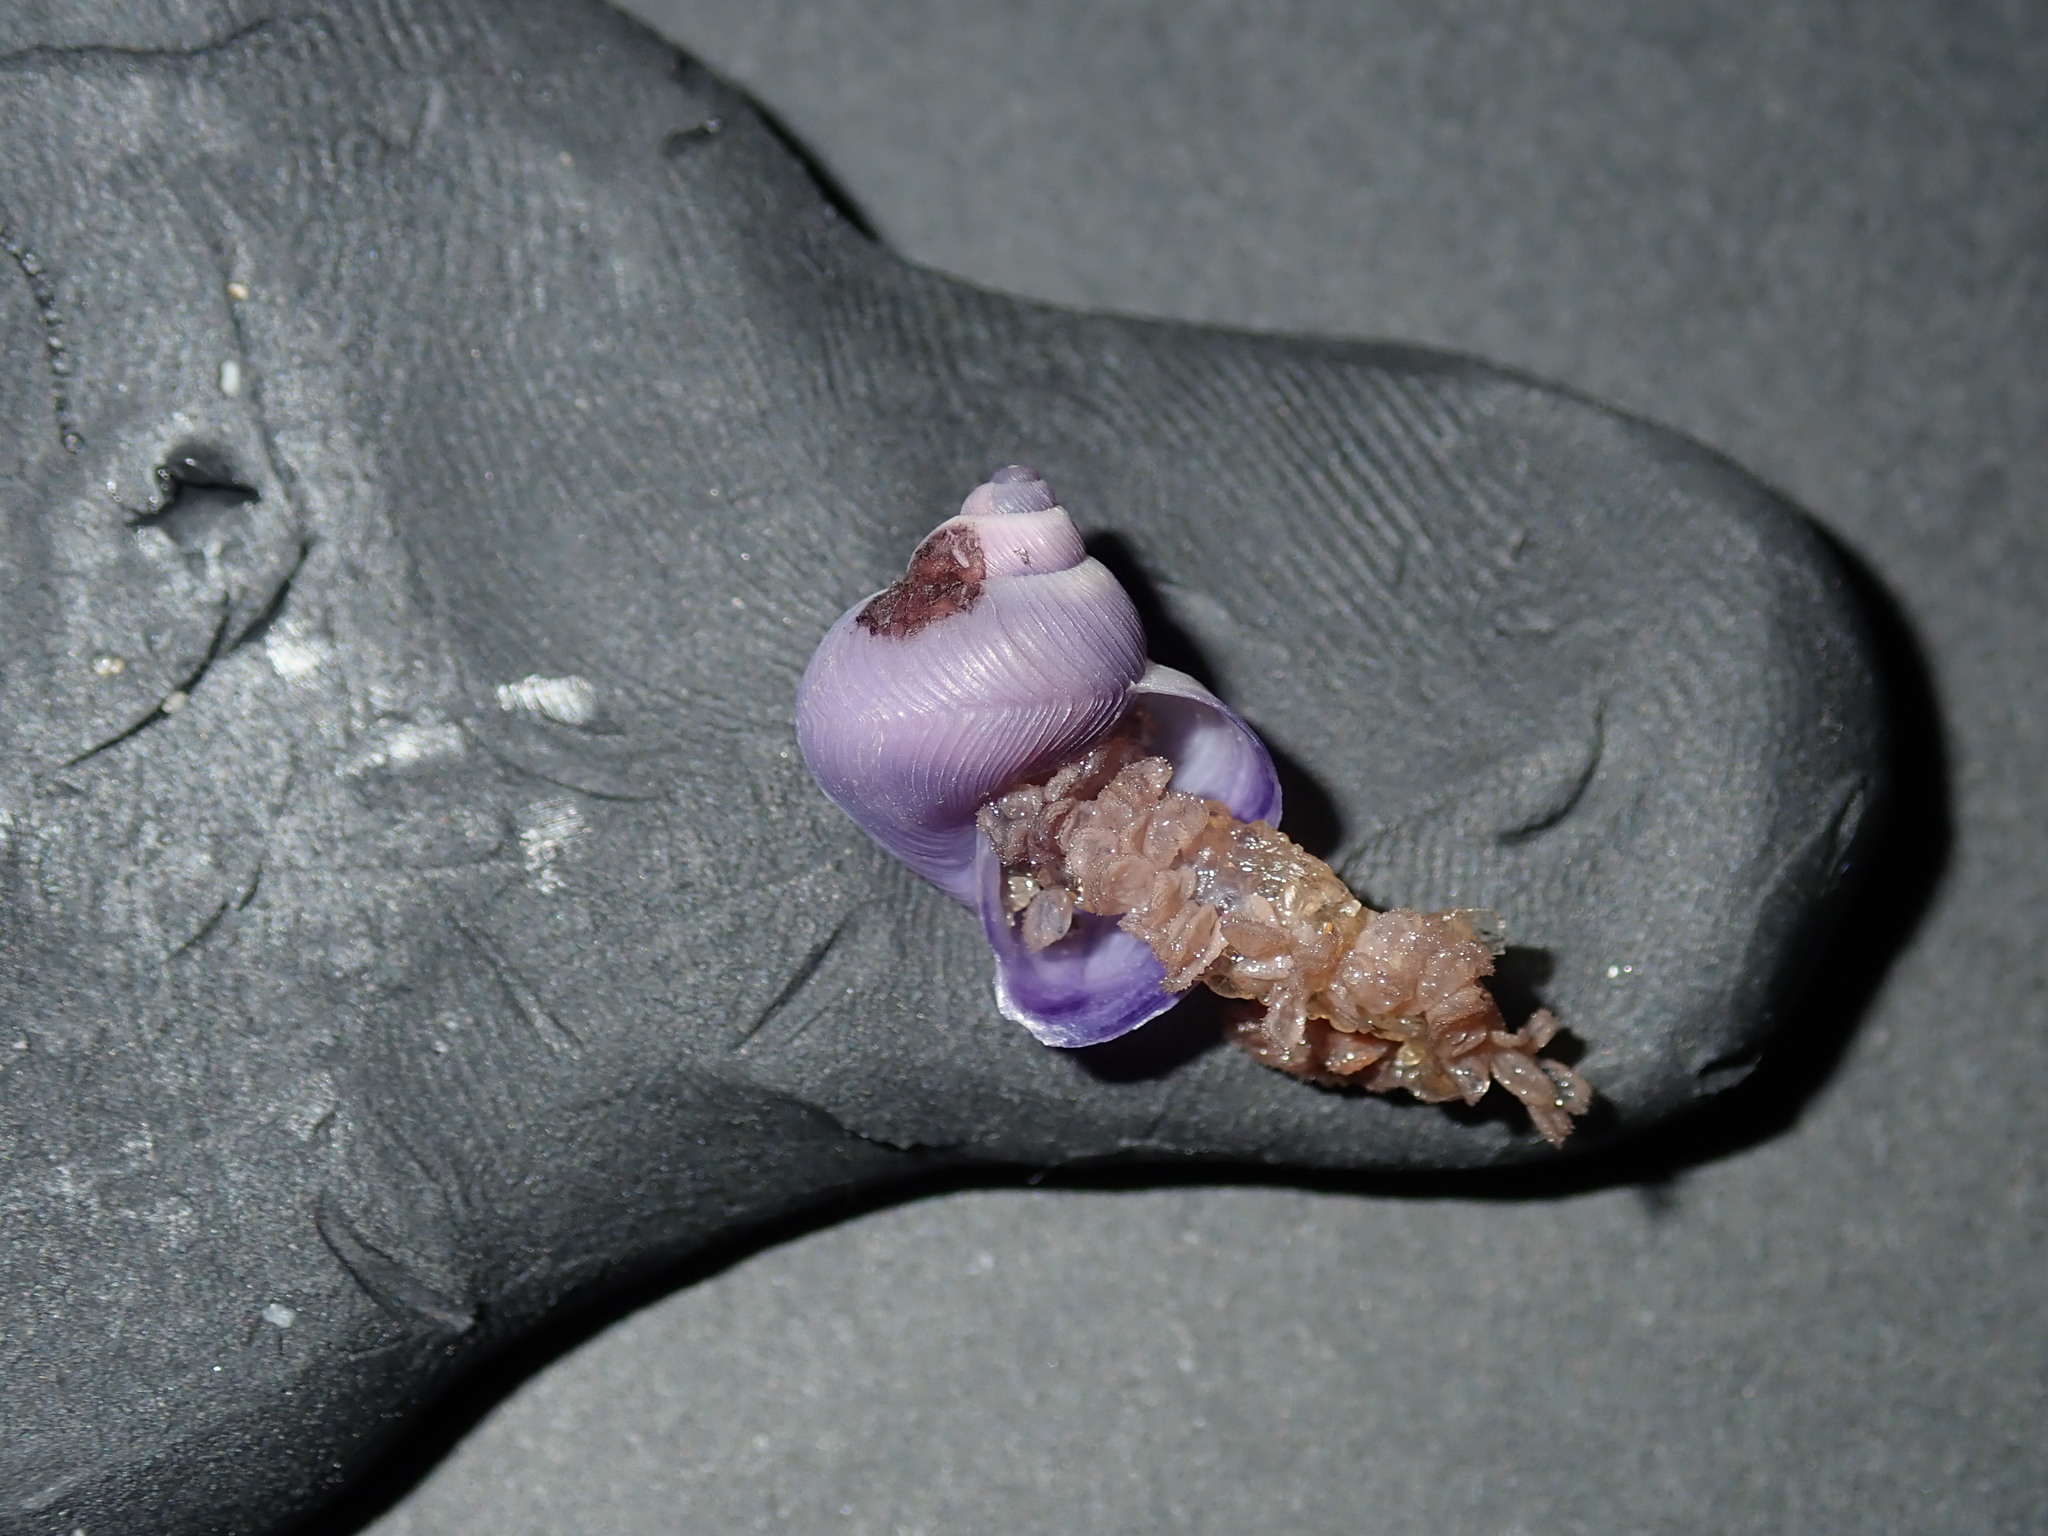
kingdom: Animalia
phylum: Mollusca
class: Gastropoda
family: Epitoniidae
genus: Janthina
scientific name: Janthina exigua
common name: Dwarf janthina
